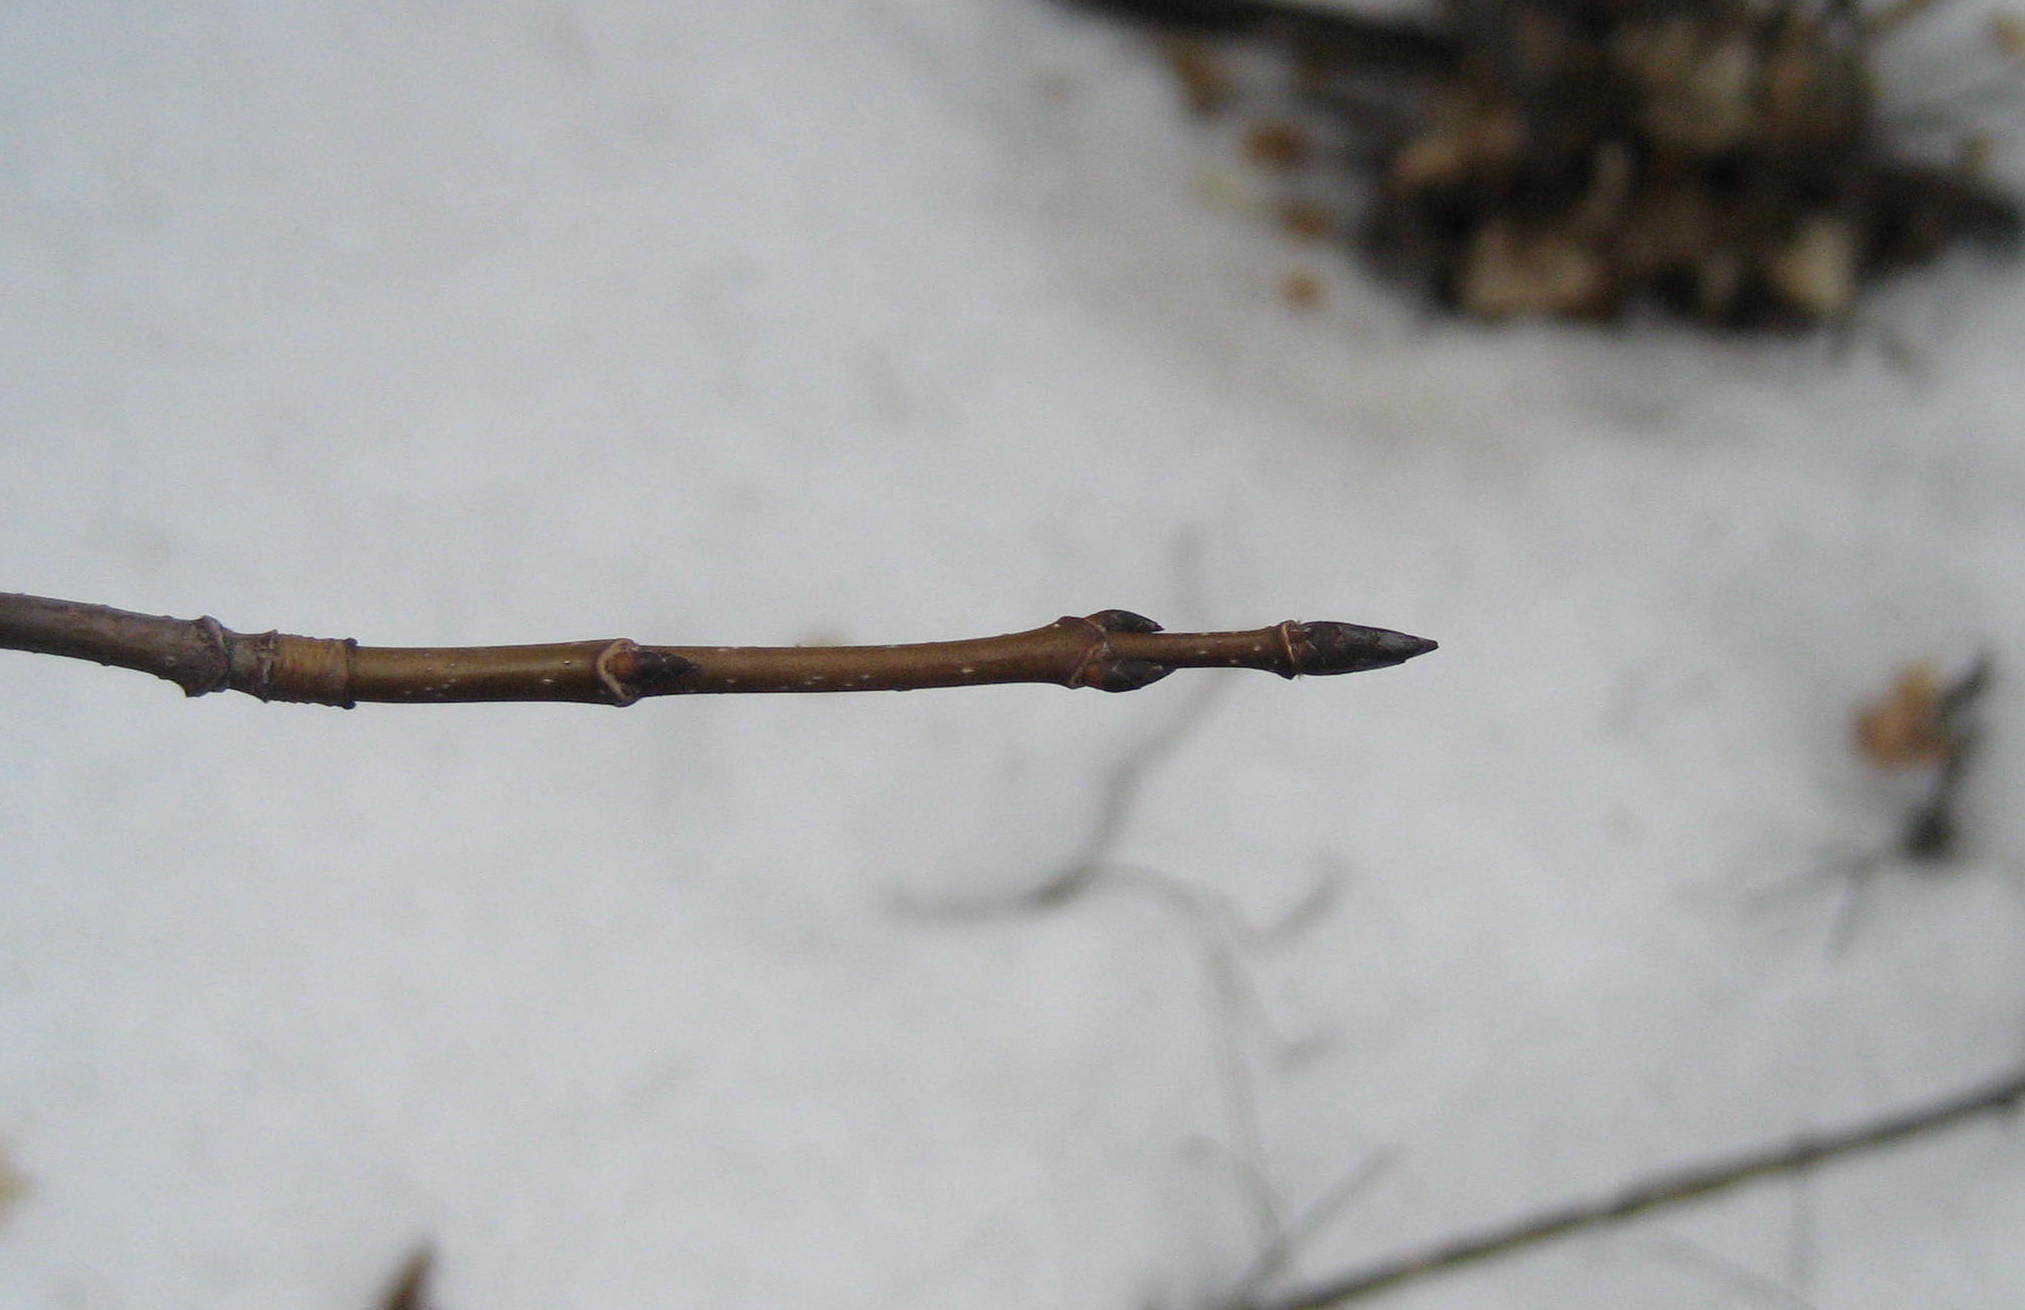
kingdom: Plantae
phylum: Tracheophyta
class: Magnoliopsida
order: Sapindales
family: Sapindaceae
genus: Acer
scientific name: Acer saccharum
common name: Sugar maple
